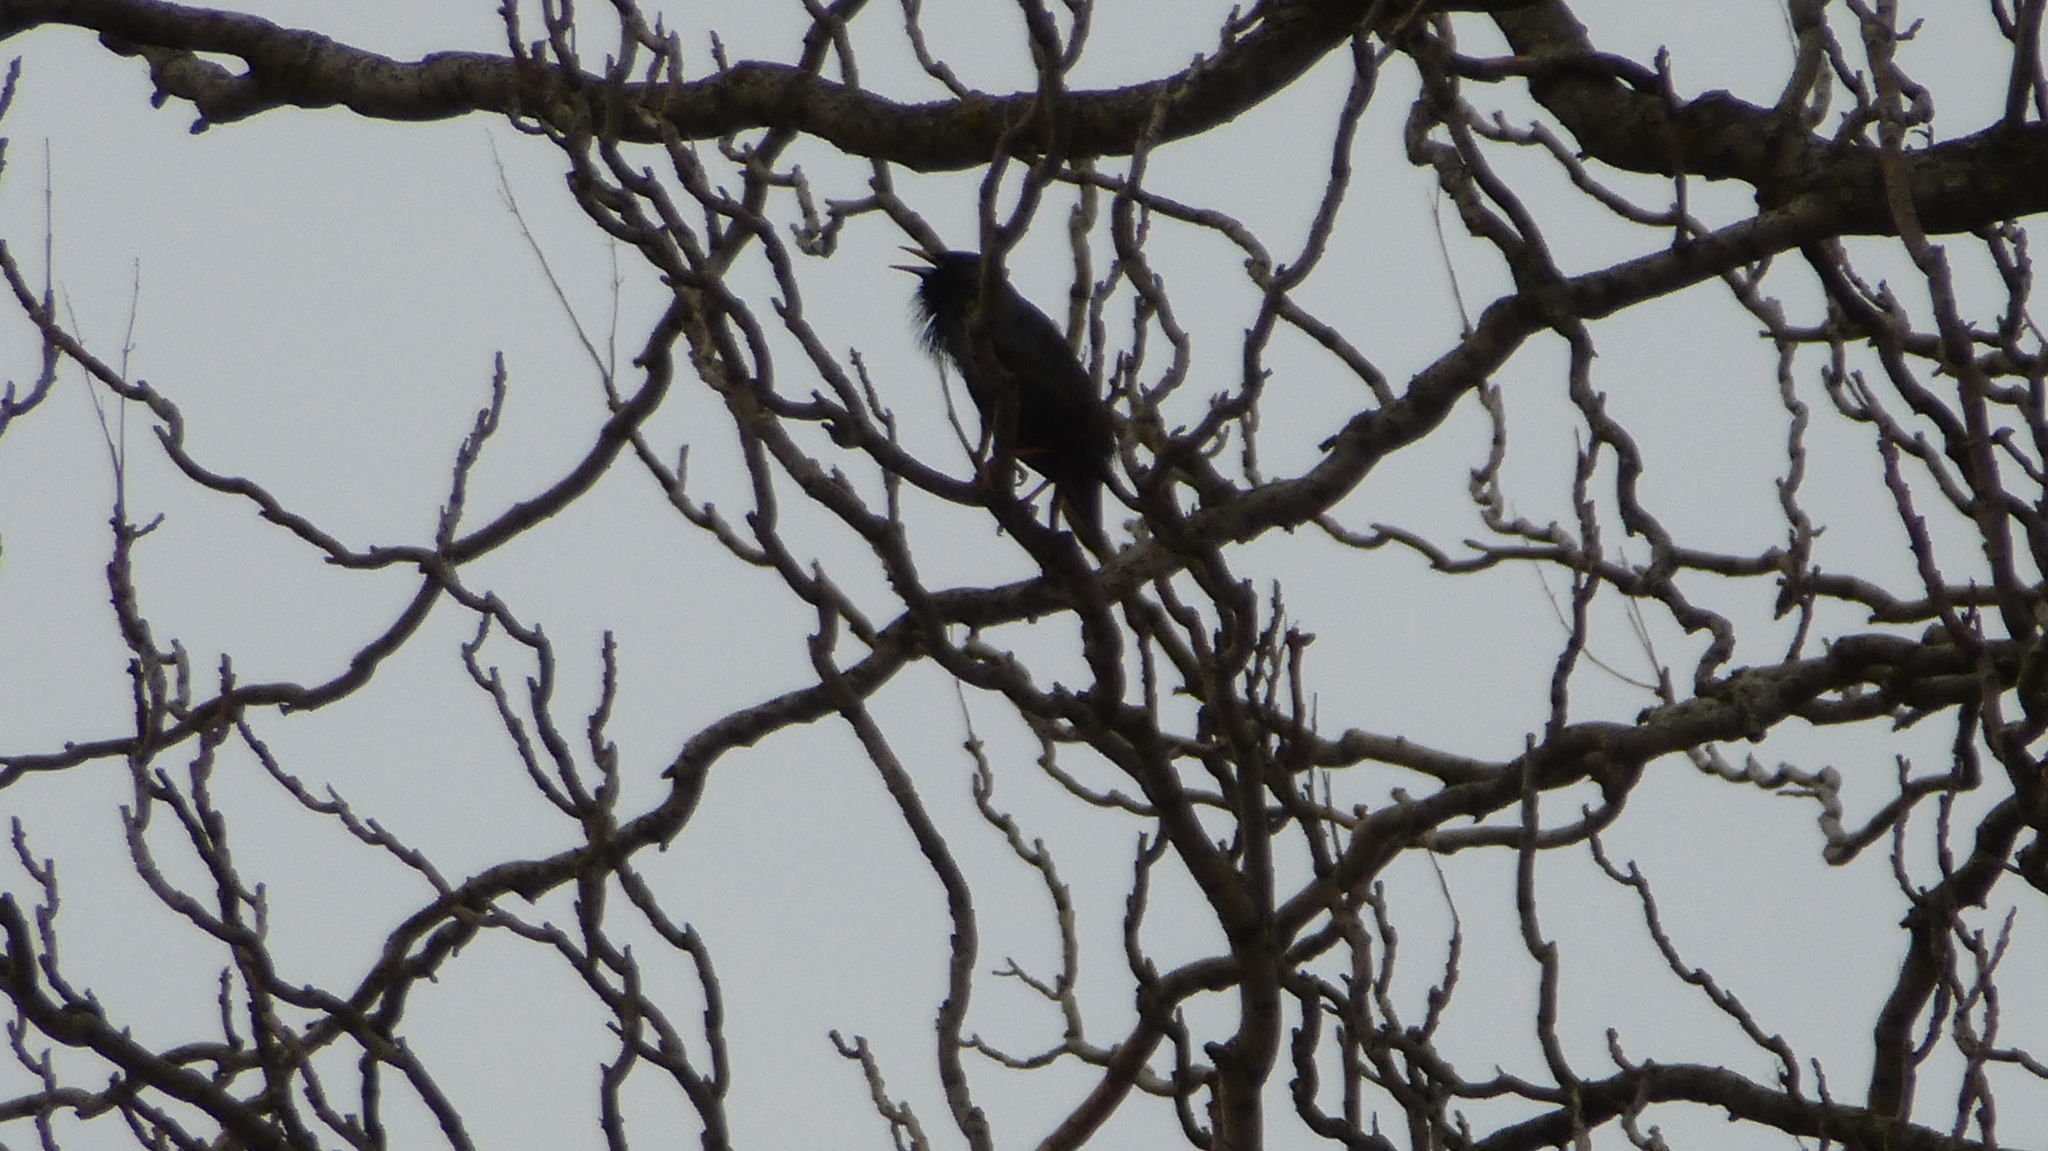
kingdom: Animalia
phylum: Chordata
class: Aves
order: Passeriformes
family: Sturnidae
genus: Sturnus
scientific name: Sturnus unicolor
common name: Spotless starling
